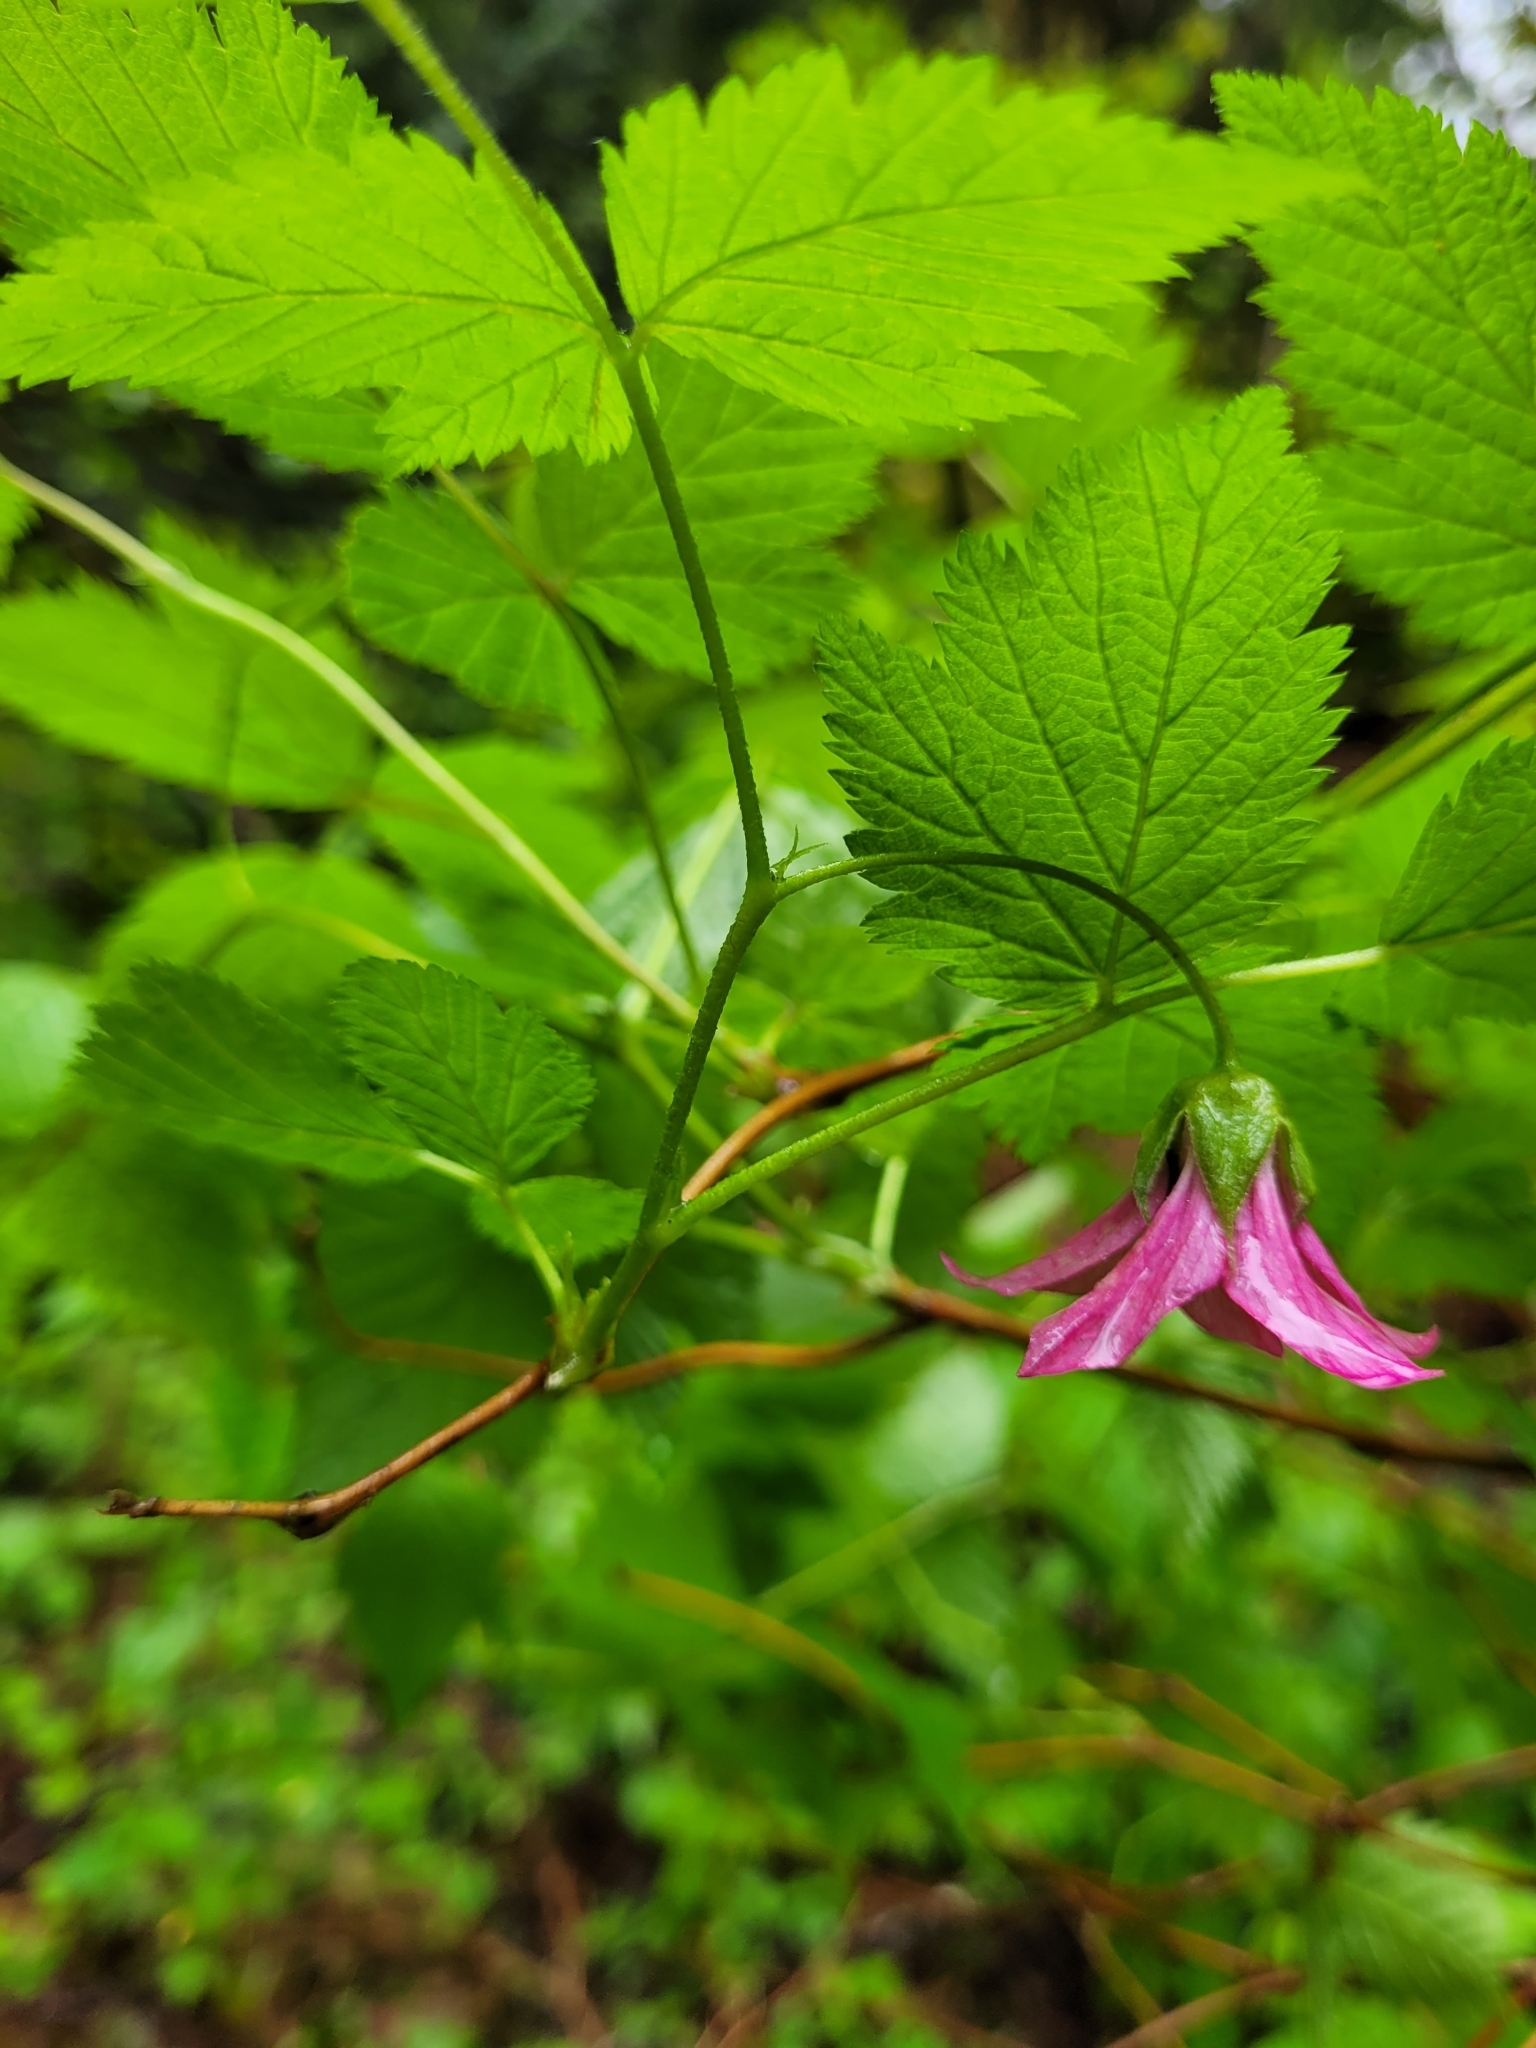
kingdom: Plantae
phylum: Tracheophyta
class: Magnoliopsida
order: Rosales
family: Rosaceae
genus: Rubus
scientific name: Rubus spectabilis
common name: Salmonberry
